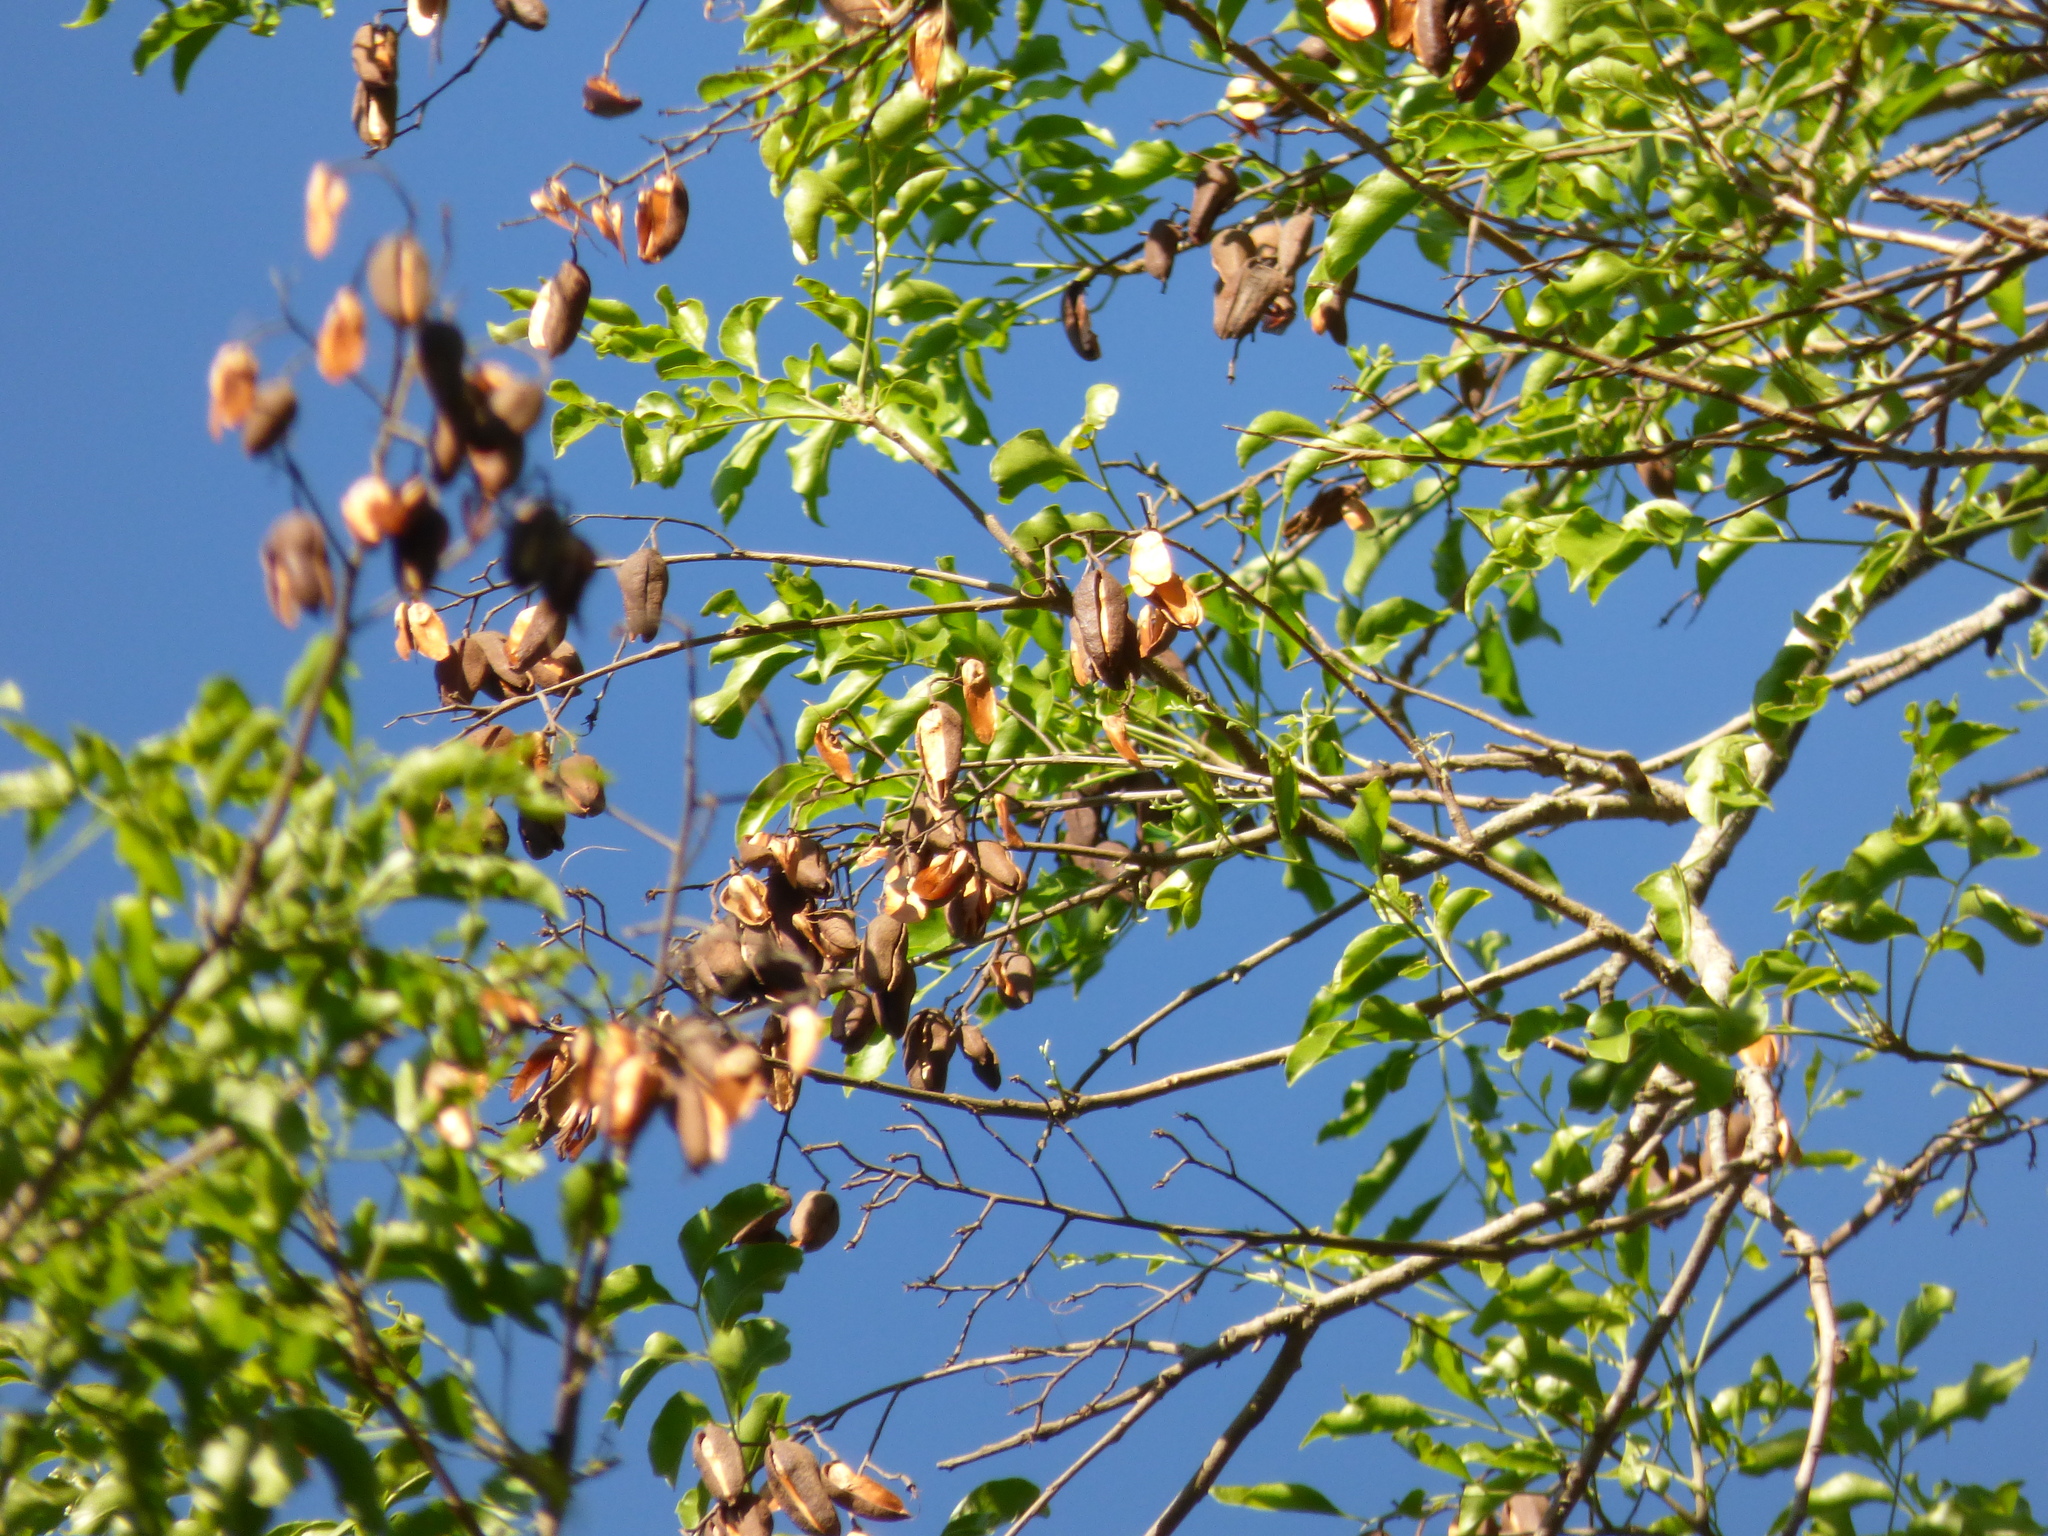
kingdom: Plantae
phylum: Tracheophyta
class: Magnoliopsida
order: Sapindales
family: Sapindaceae
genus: Diplokeleba
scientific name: Diplokeleba floribunda
